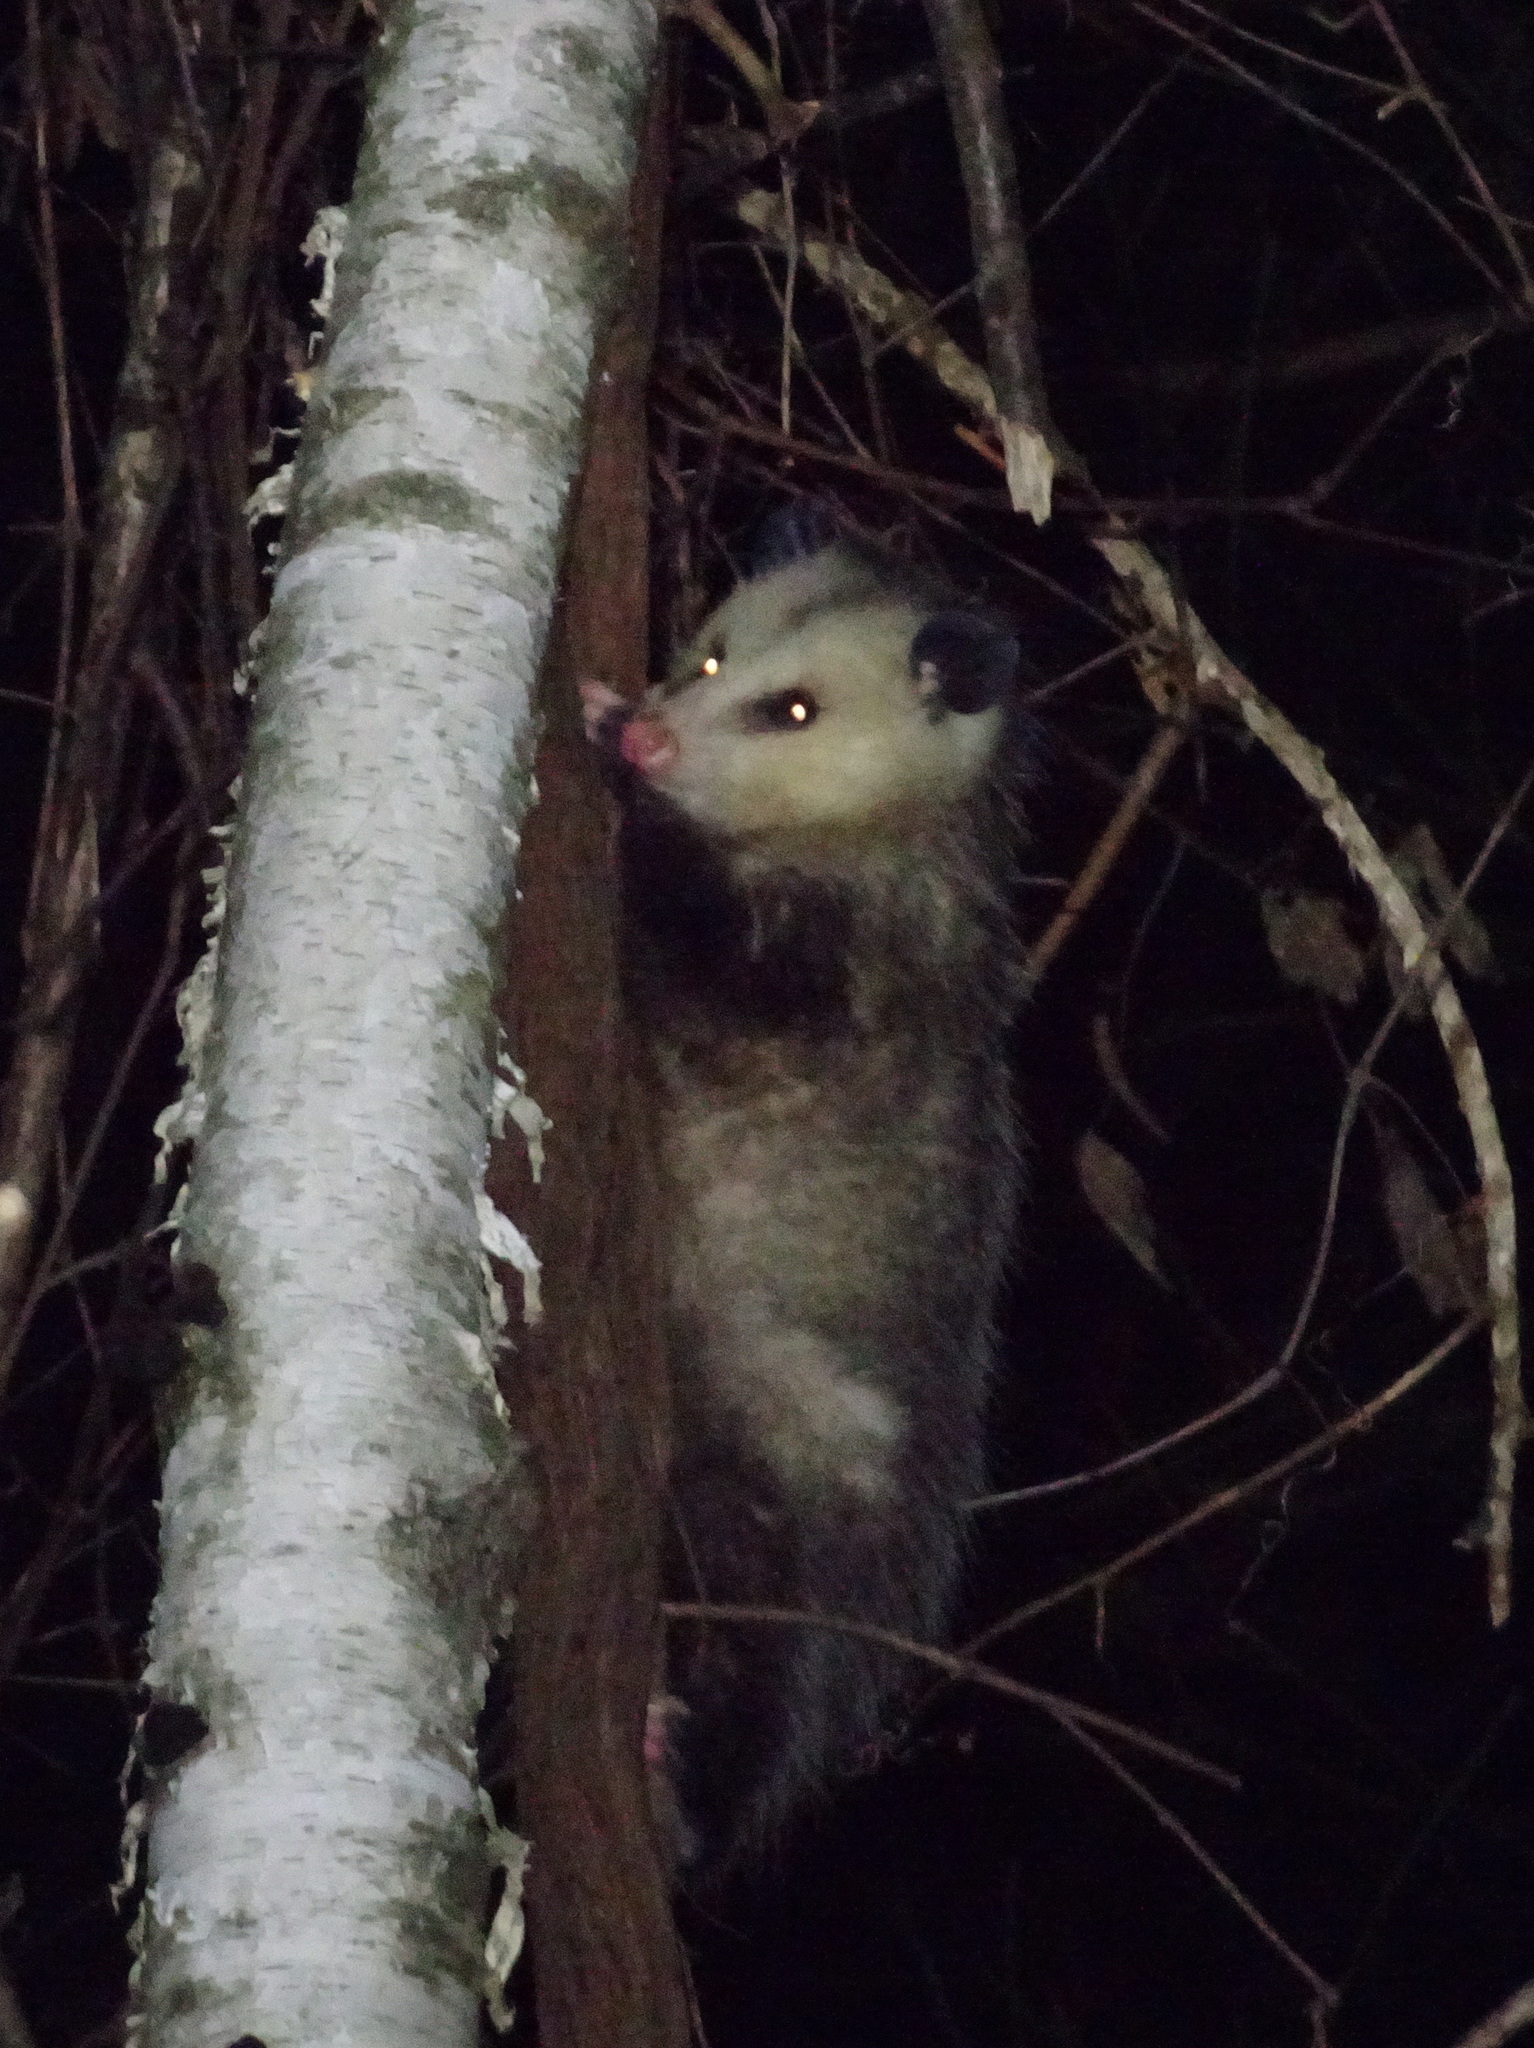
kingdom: Animalia
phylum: Chordata
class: Mammalia
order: Didelphimorphia
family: Didelphidae
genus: Didelphis
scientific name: Didelphis virginiana
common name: Virginia opossum
